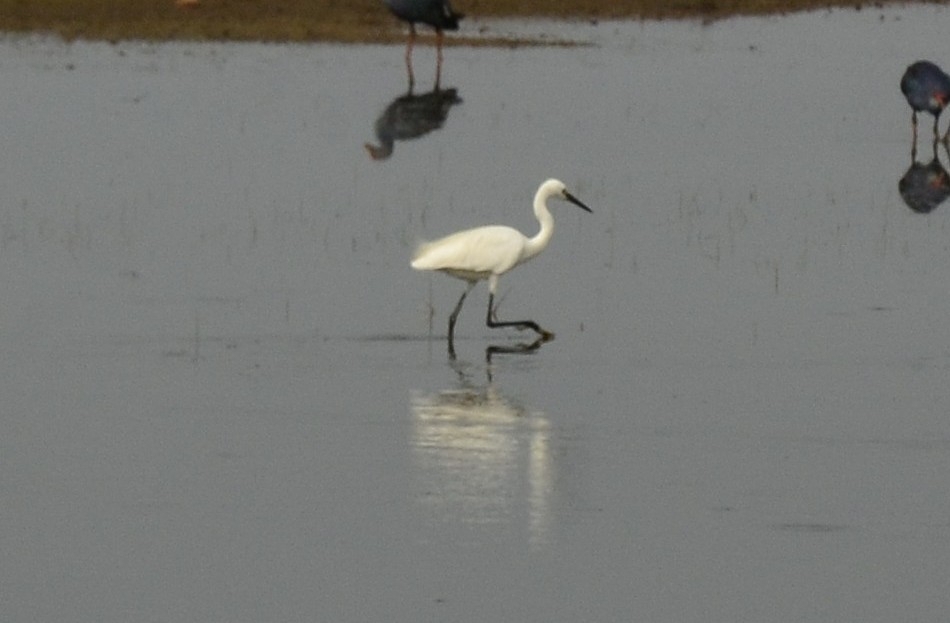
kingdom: Animalia
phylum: Chordata
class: Aves
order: Pelecaniformes
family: Ardeidae
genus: Egretta
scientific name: Egretta garzetta
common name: Little egret
